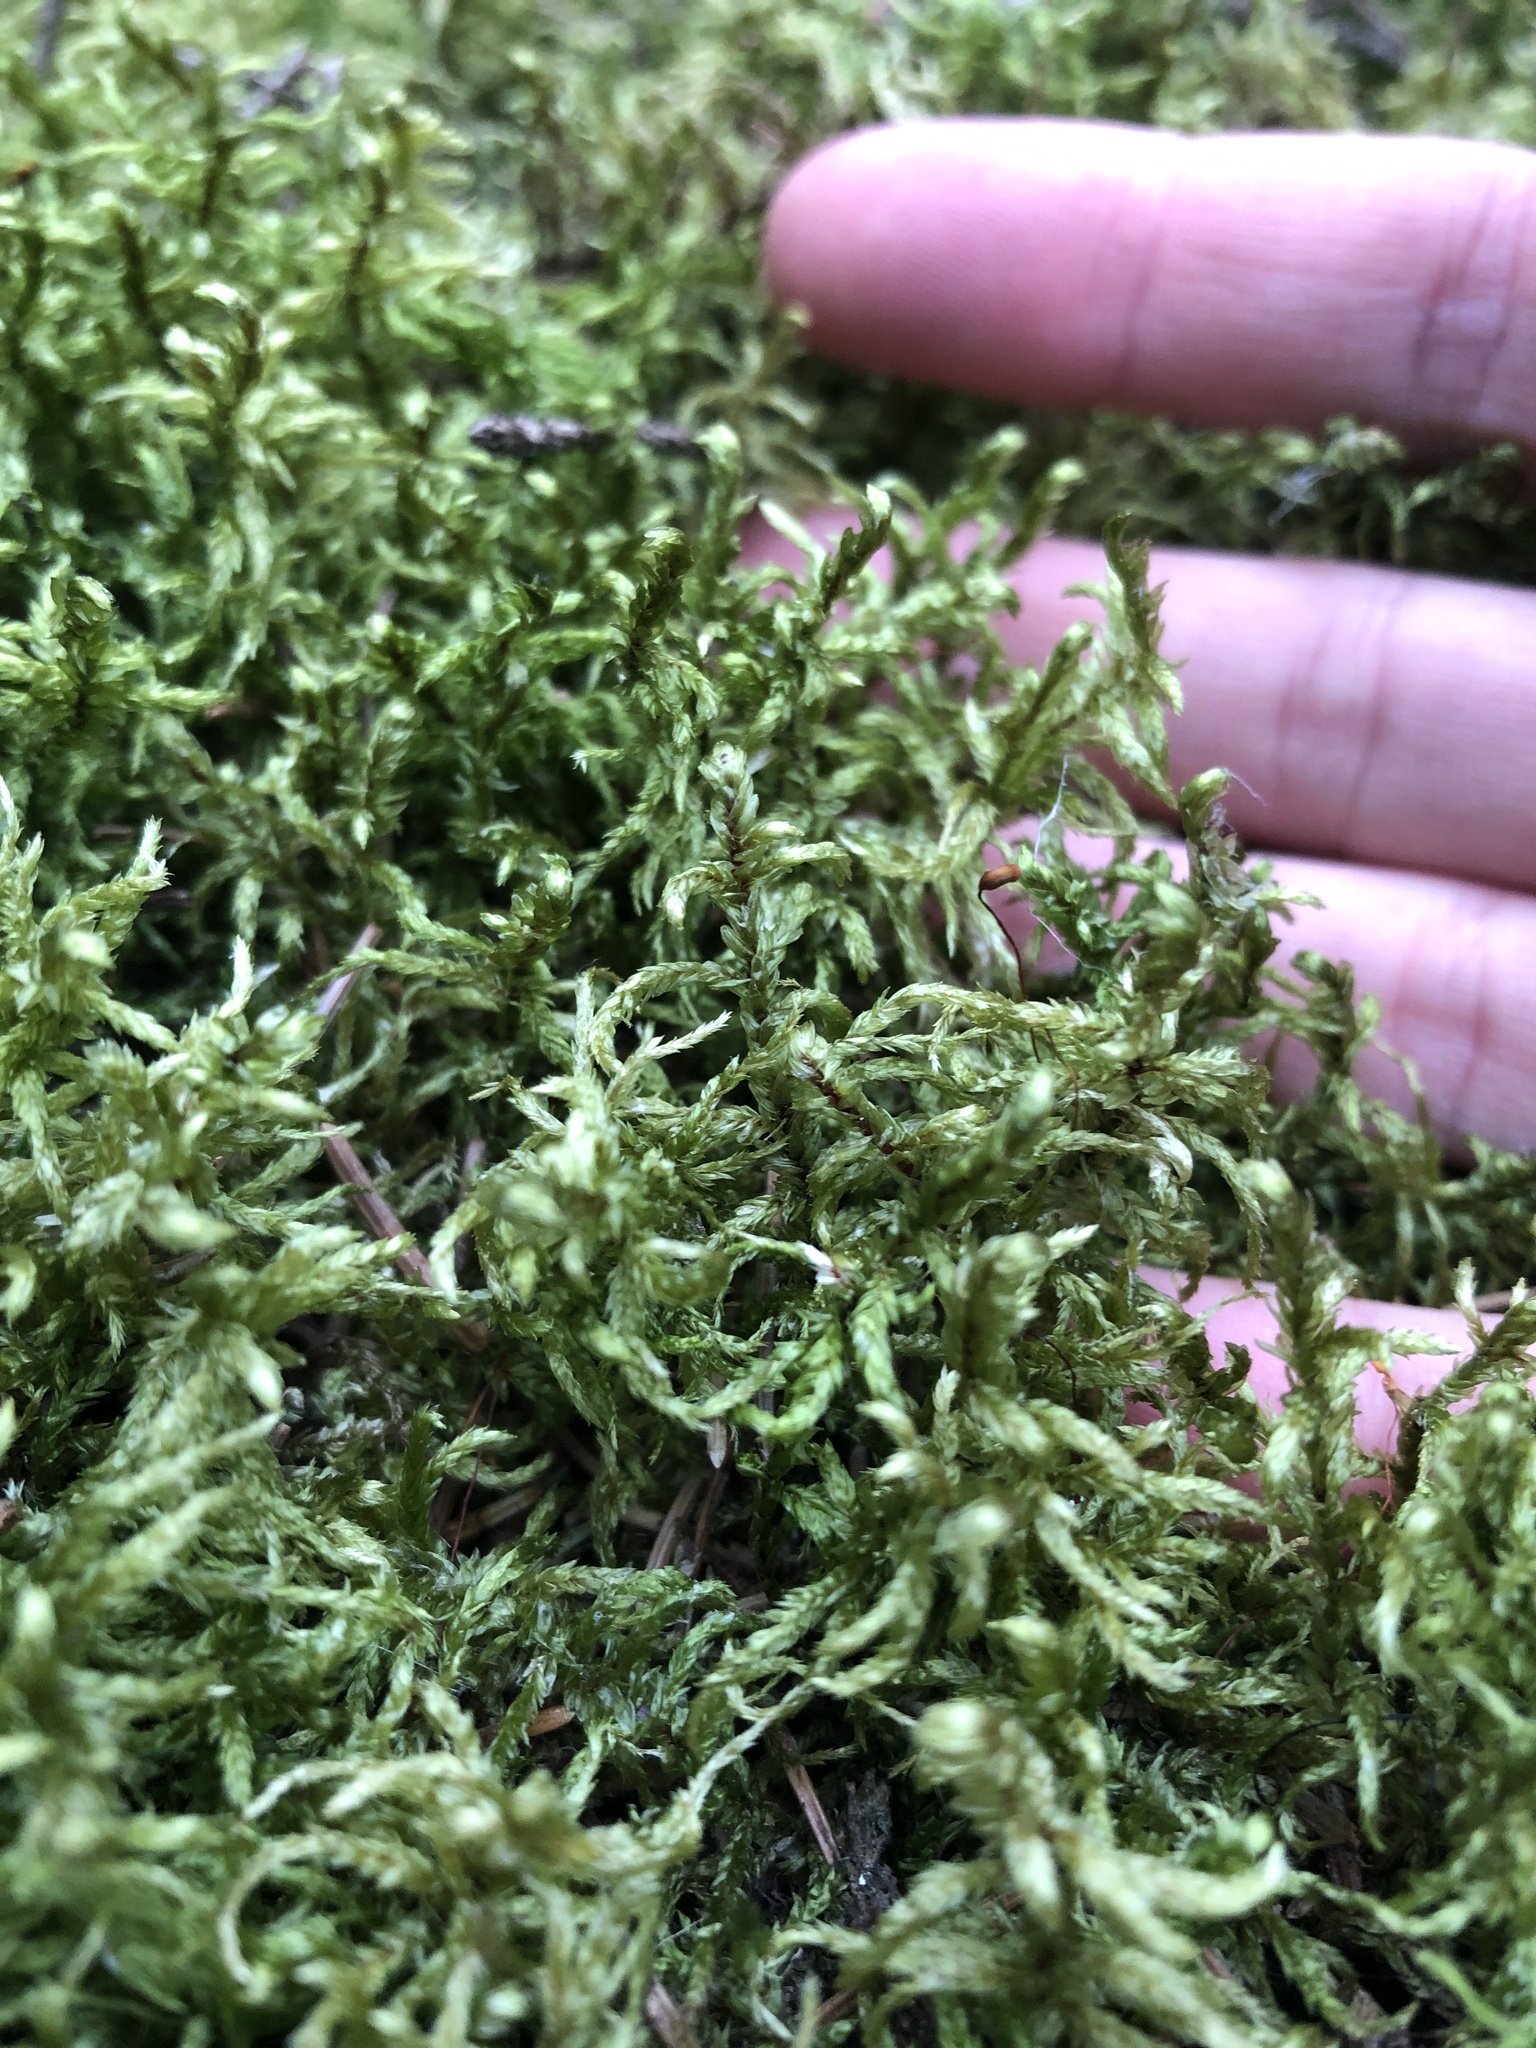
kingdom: Plantae
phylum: Bryophyta
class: Bryopsida
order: Hypnales
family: Hylocomiaceae
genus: Pleurozium
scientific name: Pleurozium schreberi
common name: Red-stemmed feather moss
